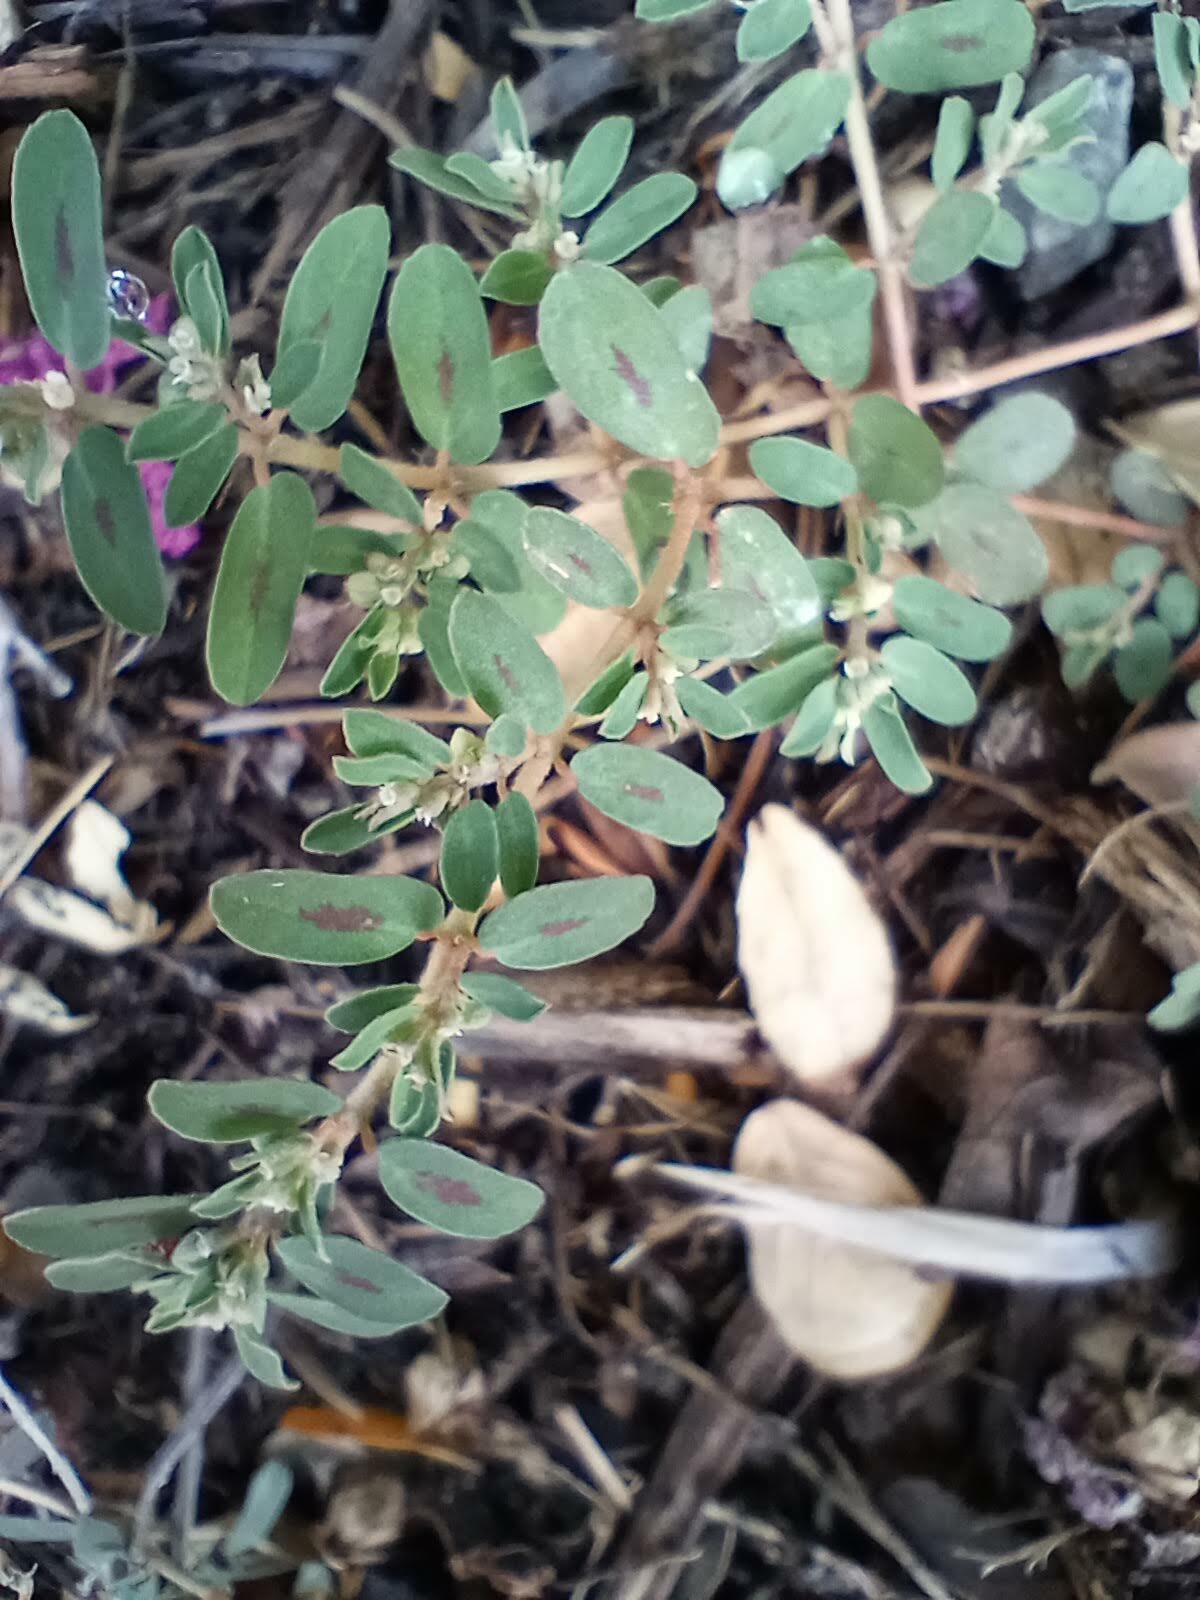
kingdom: Plantae
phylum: Tracheophyta
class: Magnoliopsida
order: Malpighiales
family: Euphorbiaceae
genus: Euphorbia
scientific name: Euphorbia maculata
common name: Spotted spurge
